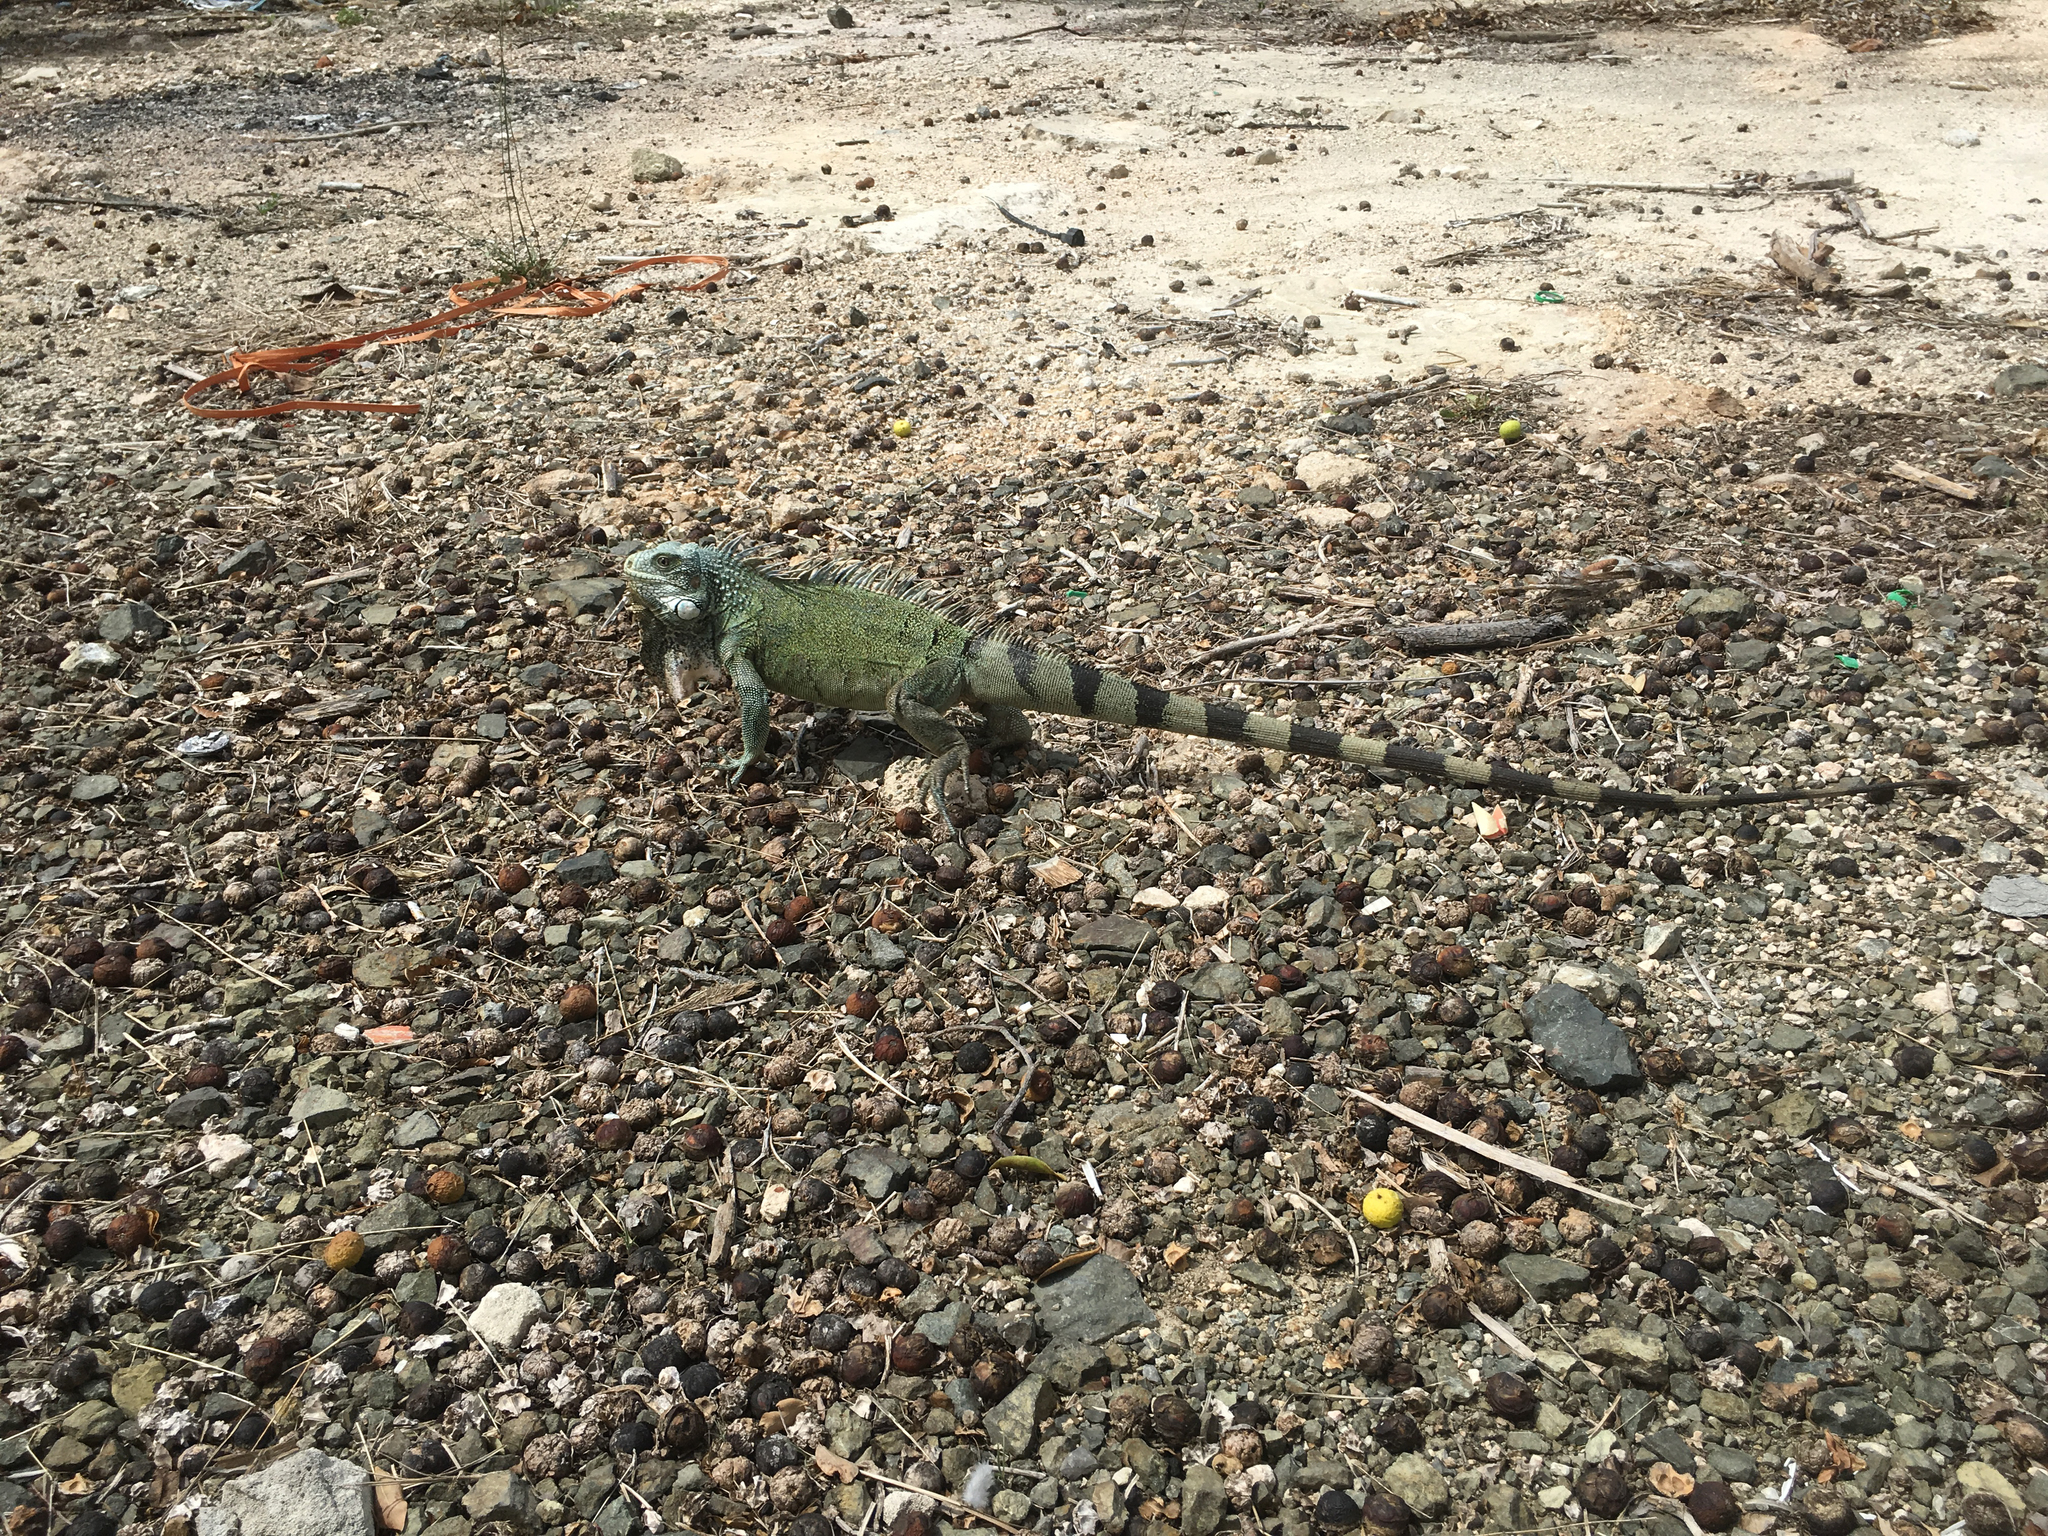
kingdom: Animalia
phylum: Chordata
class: Squamata
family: Iguanidae
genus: Iguana
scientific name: Iguana iguana
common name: Green iguana
